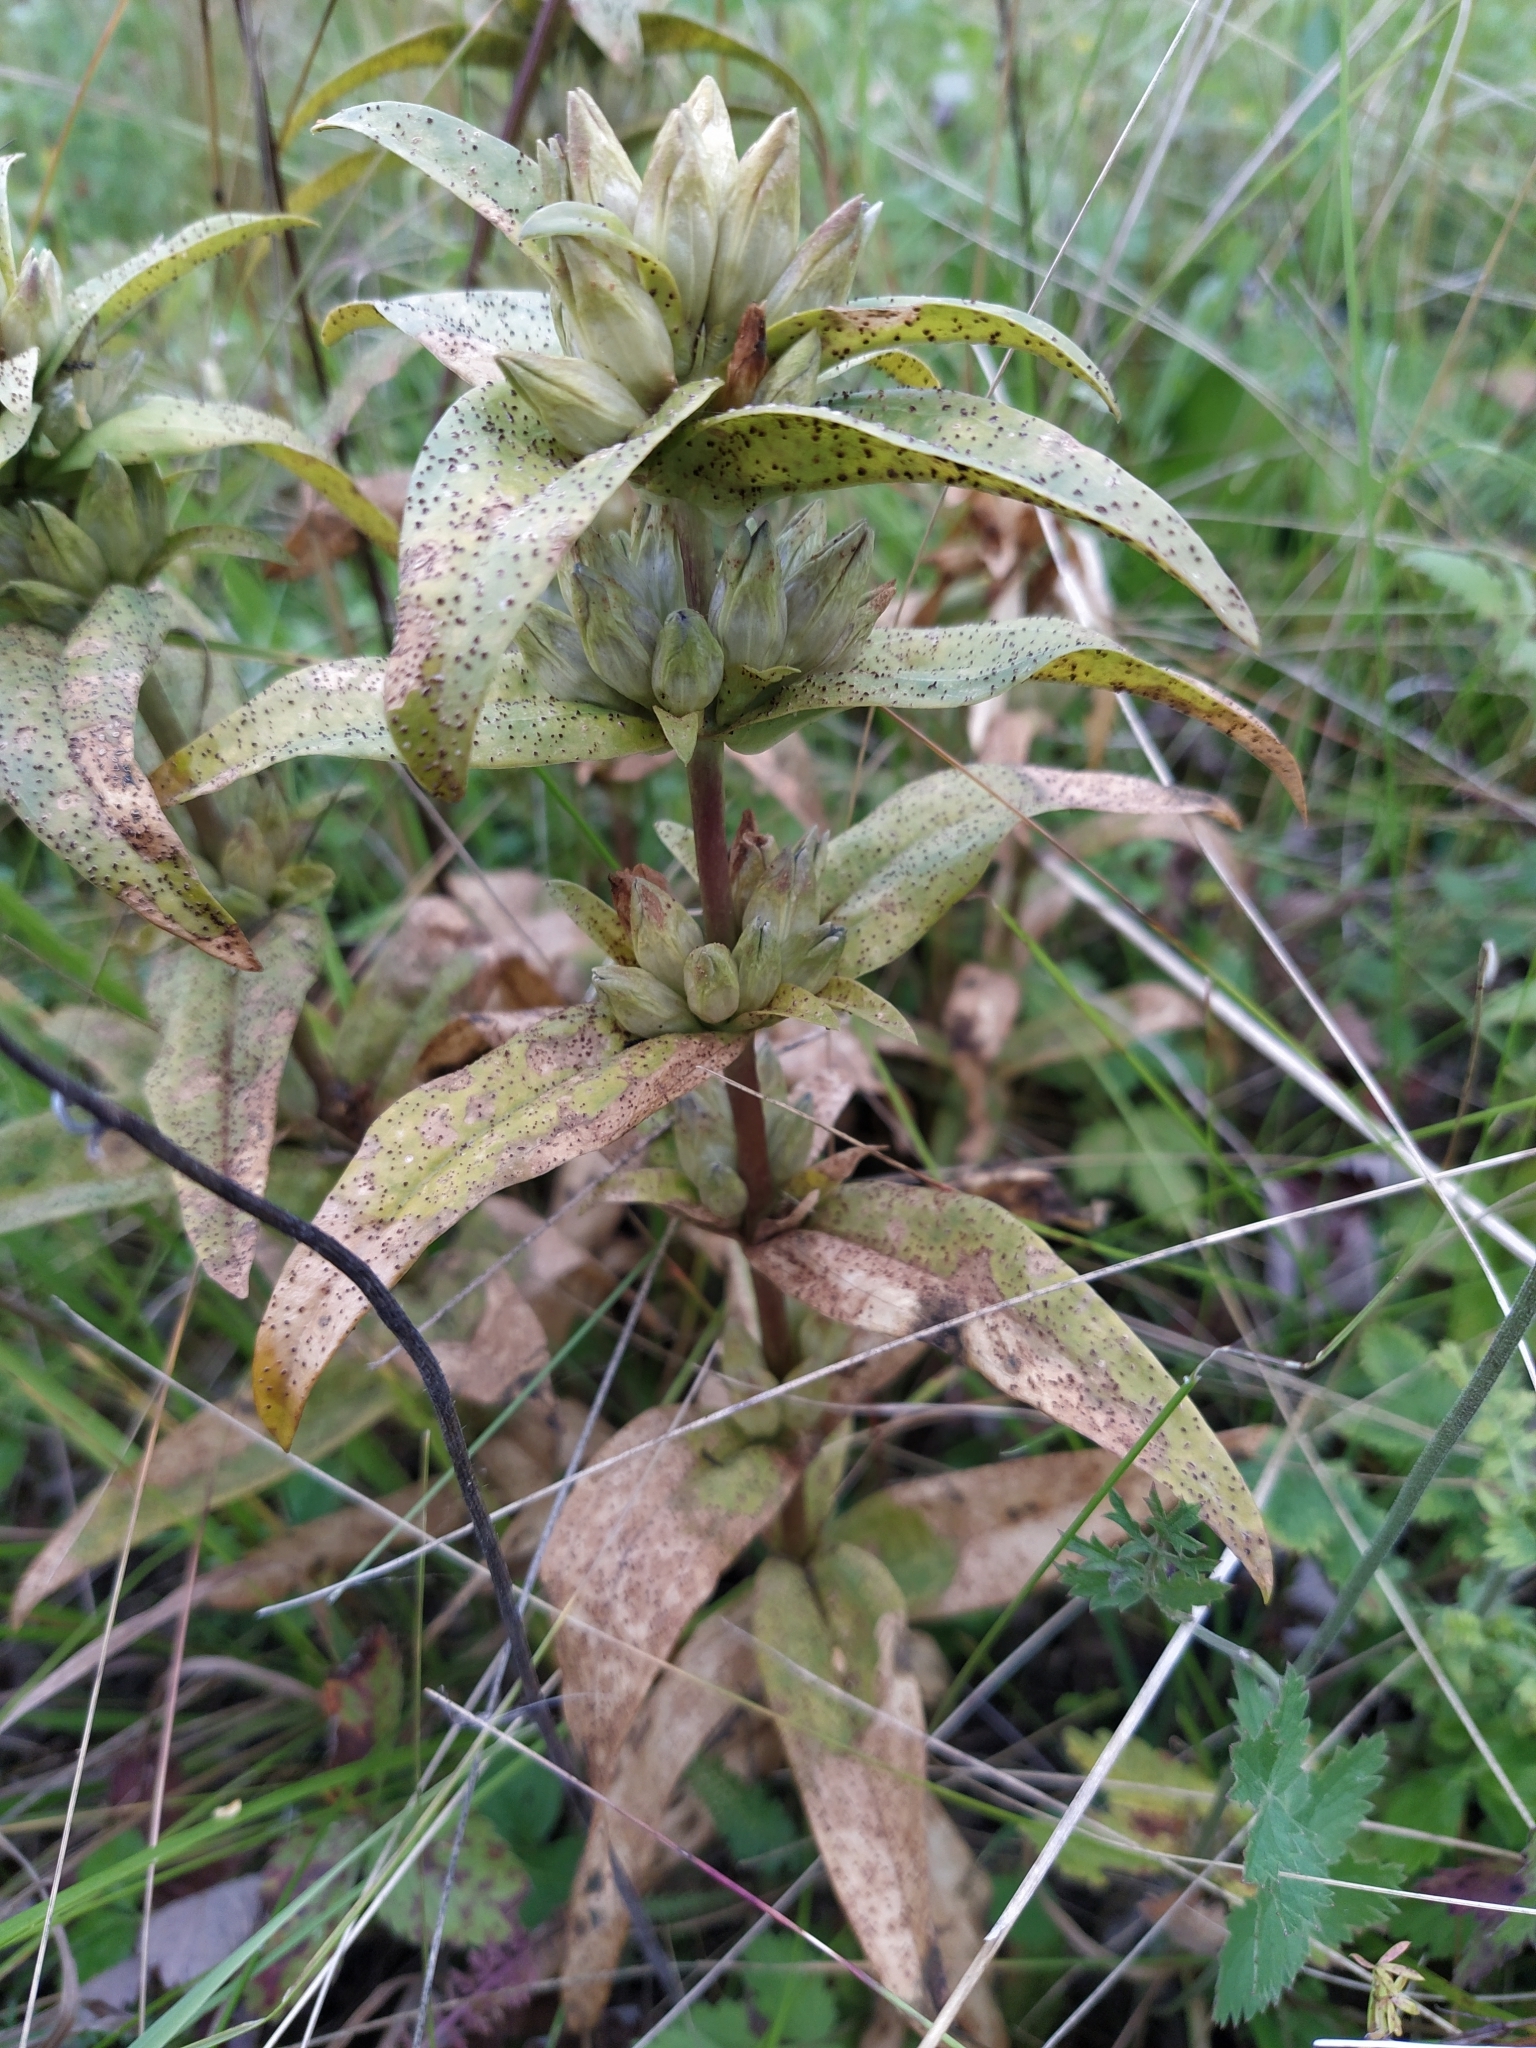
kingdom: Plantae
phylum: Tracheophyta
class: Magnoliopsida
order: Gentianales
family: Gentianaceae
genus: Gentiana
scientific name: Gentiana cruciata
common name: Cross gentian
